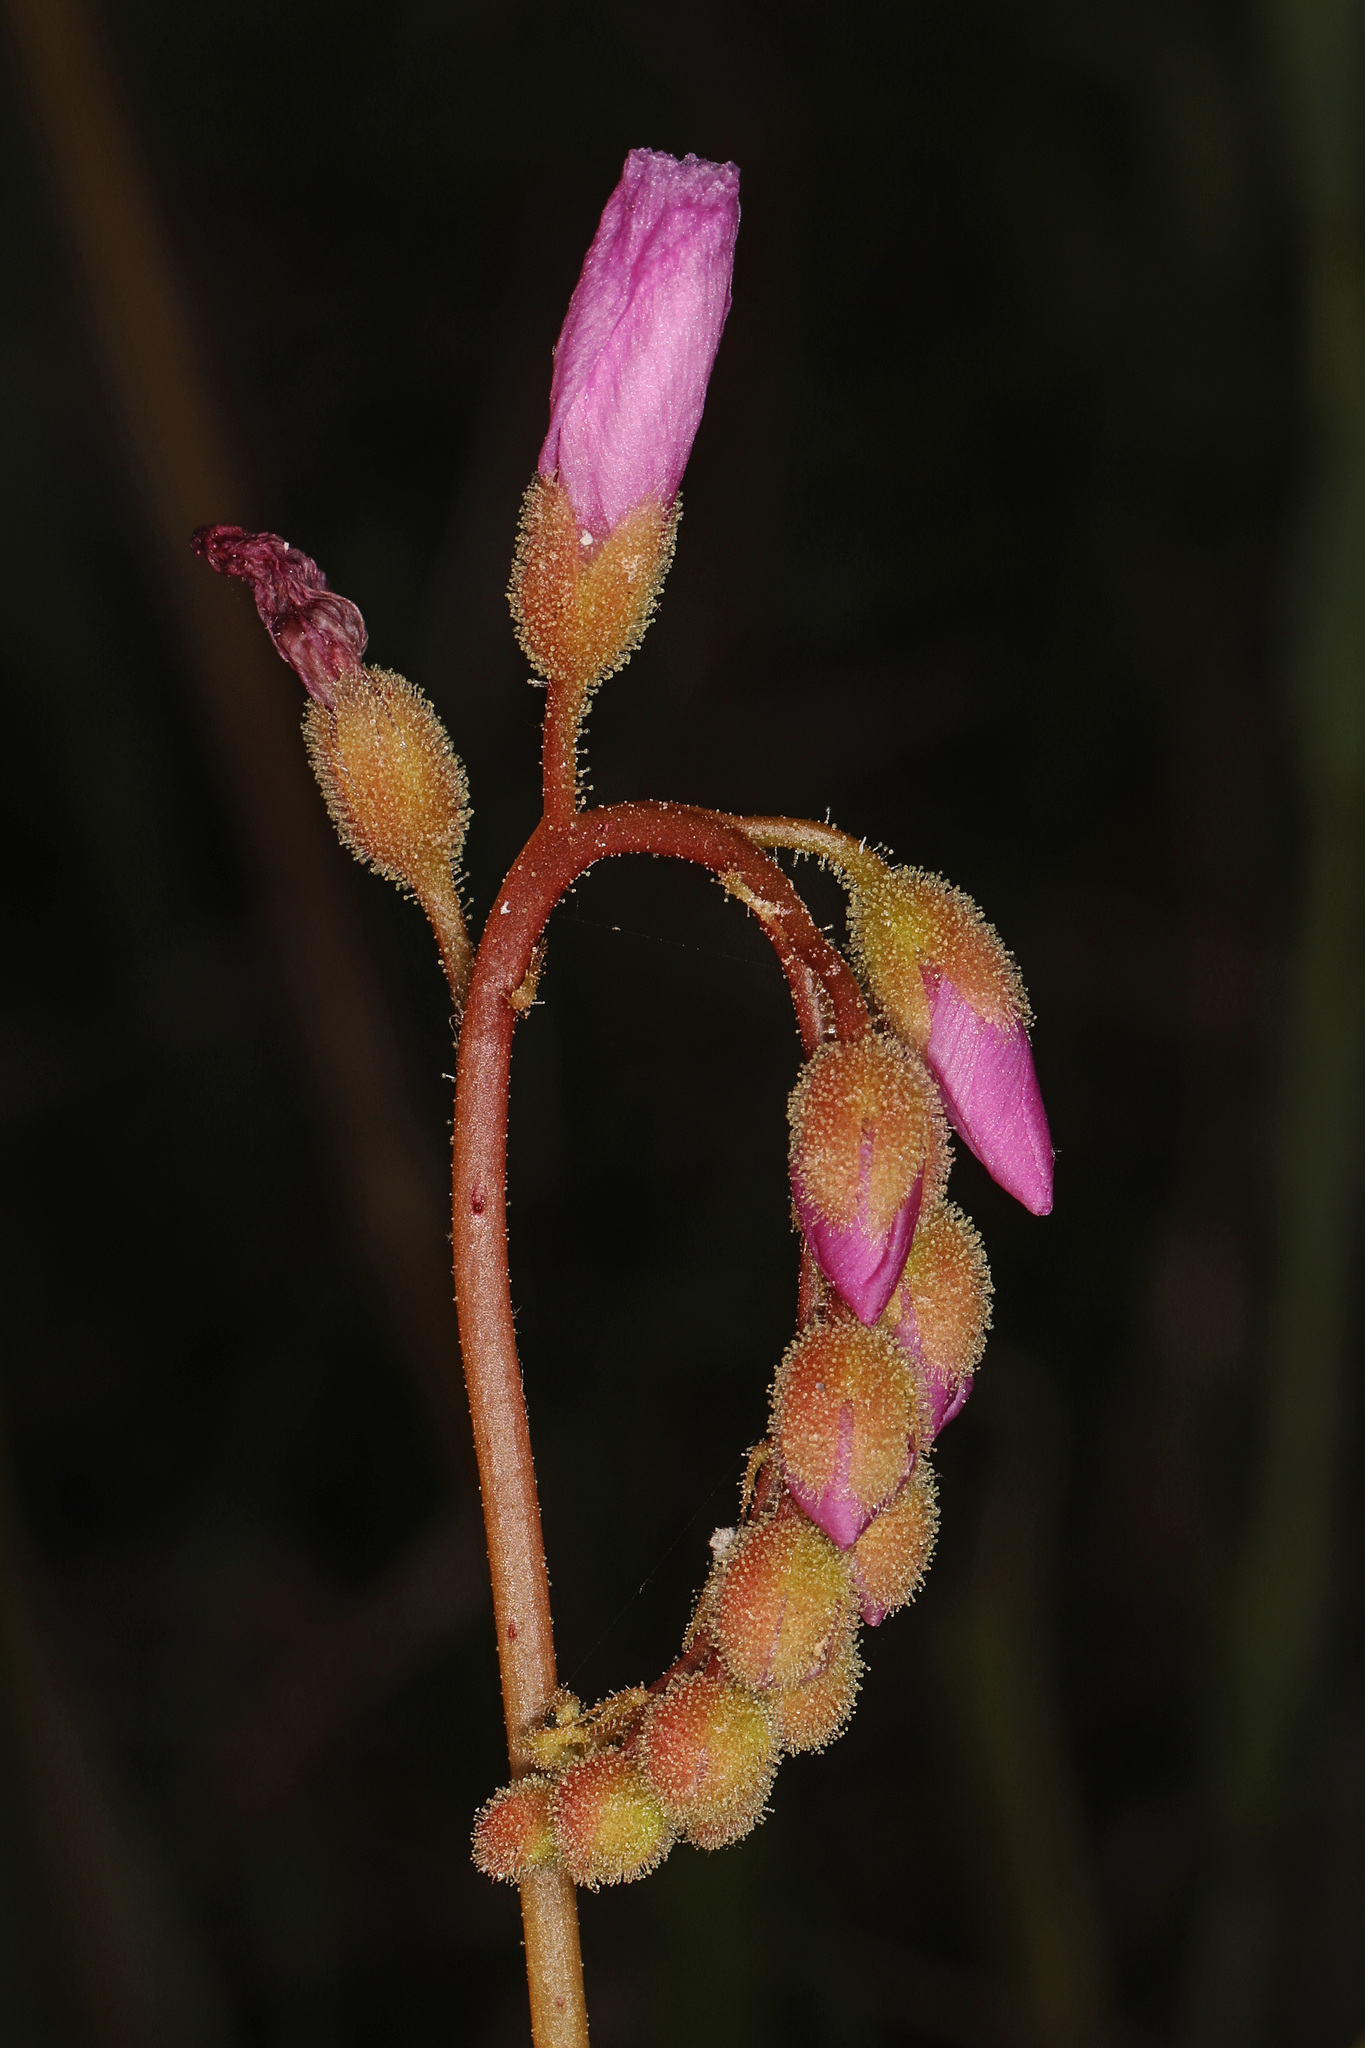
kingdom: Plantae
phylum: Tracheophyta
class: Magnoliopsida
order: Caryophyllales
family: Droseraceae
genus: Drosera
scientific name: Drosera filiformis
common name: Dew-thread
